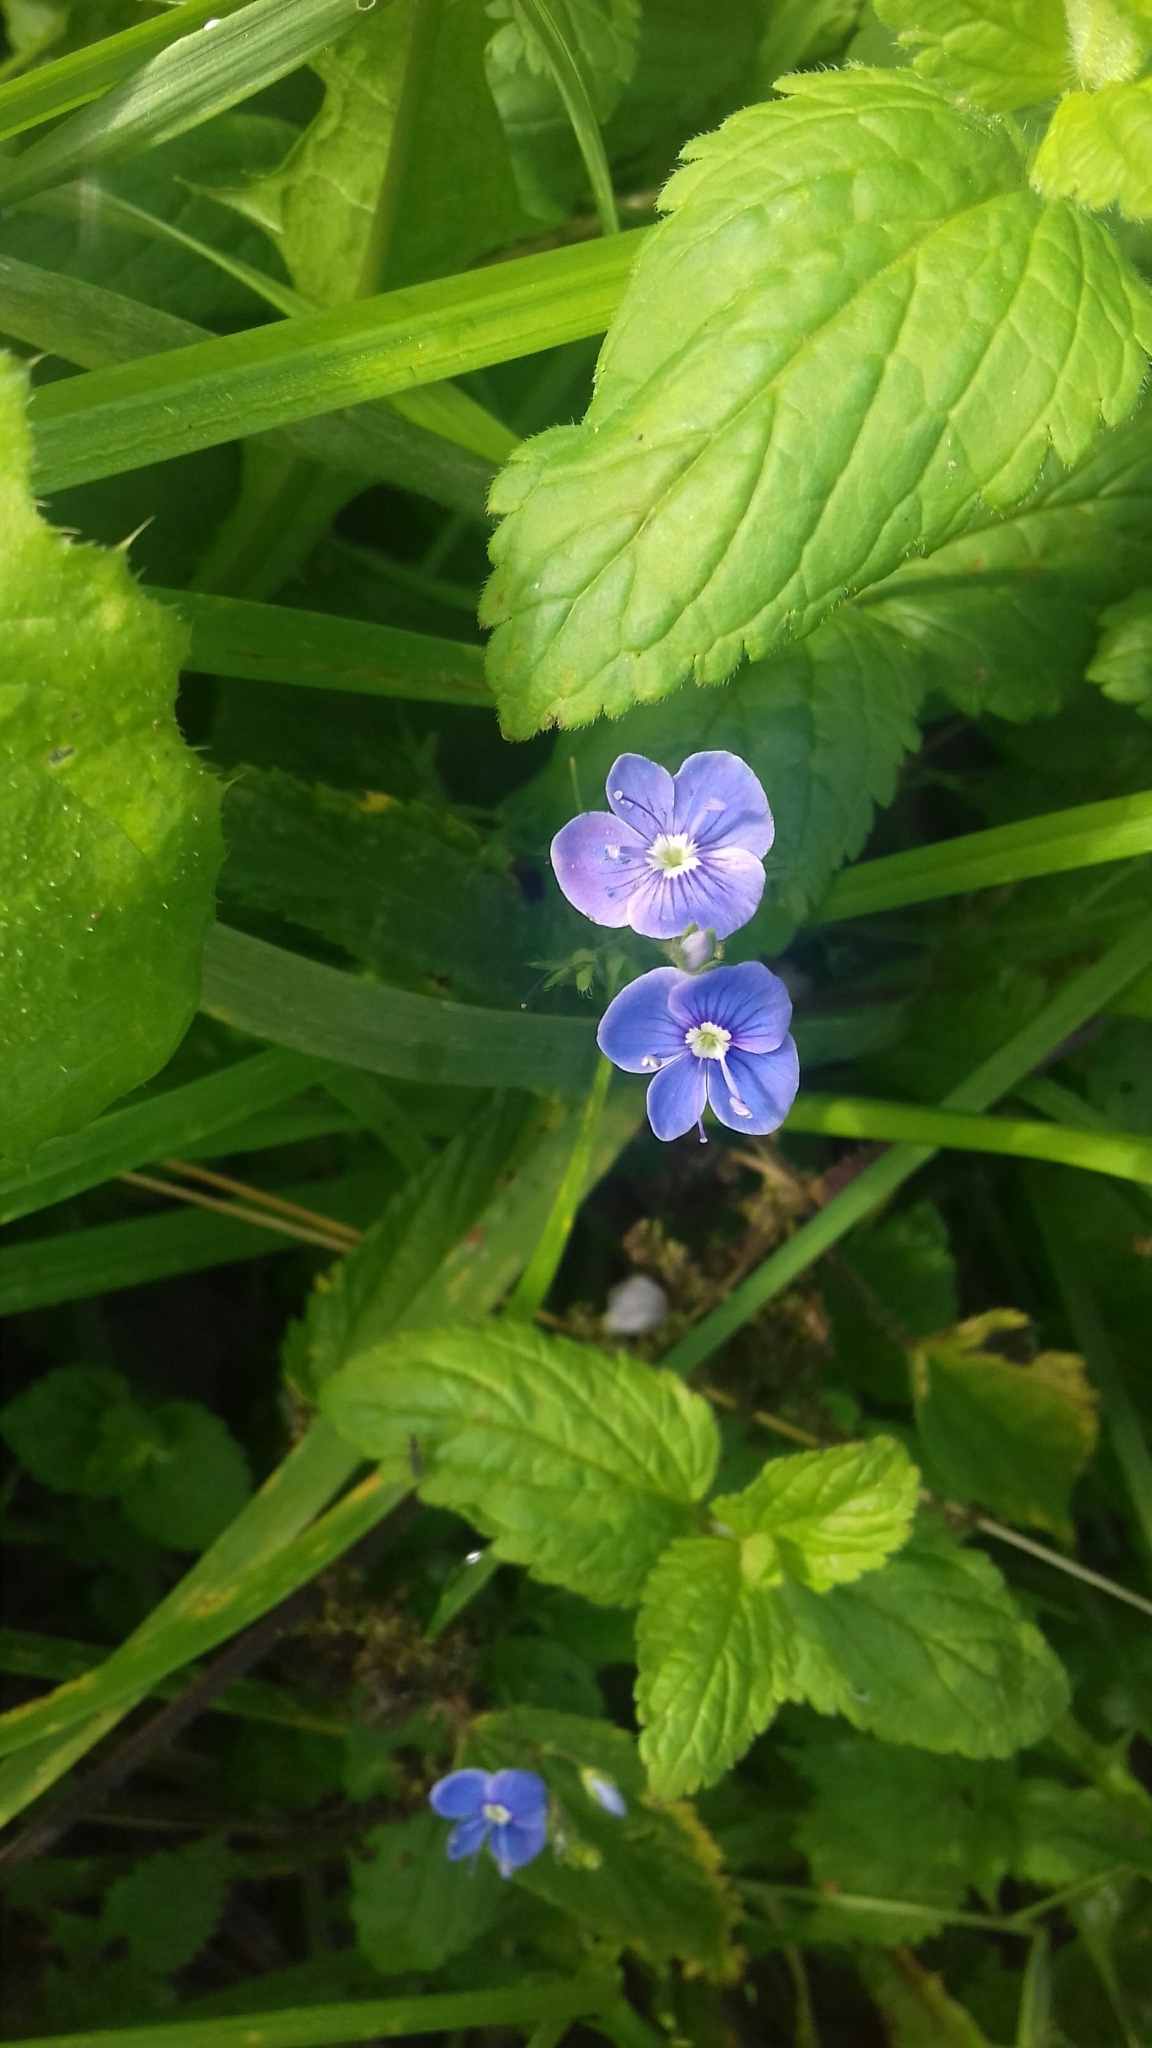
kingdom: Plantae
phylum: Tracheophyta
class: Magnoliopsida
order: Lamiales
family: Plantaginaceae
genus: Veronica
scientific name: Veronica chamaedrys
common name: Germander speedwell
